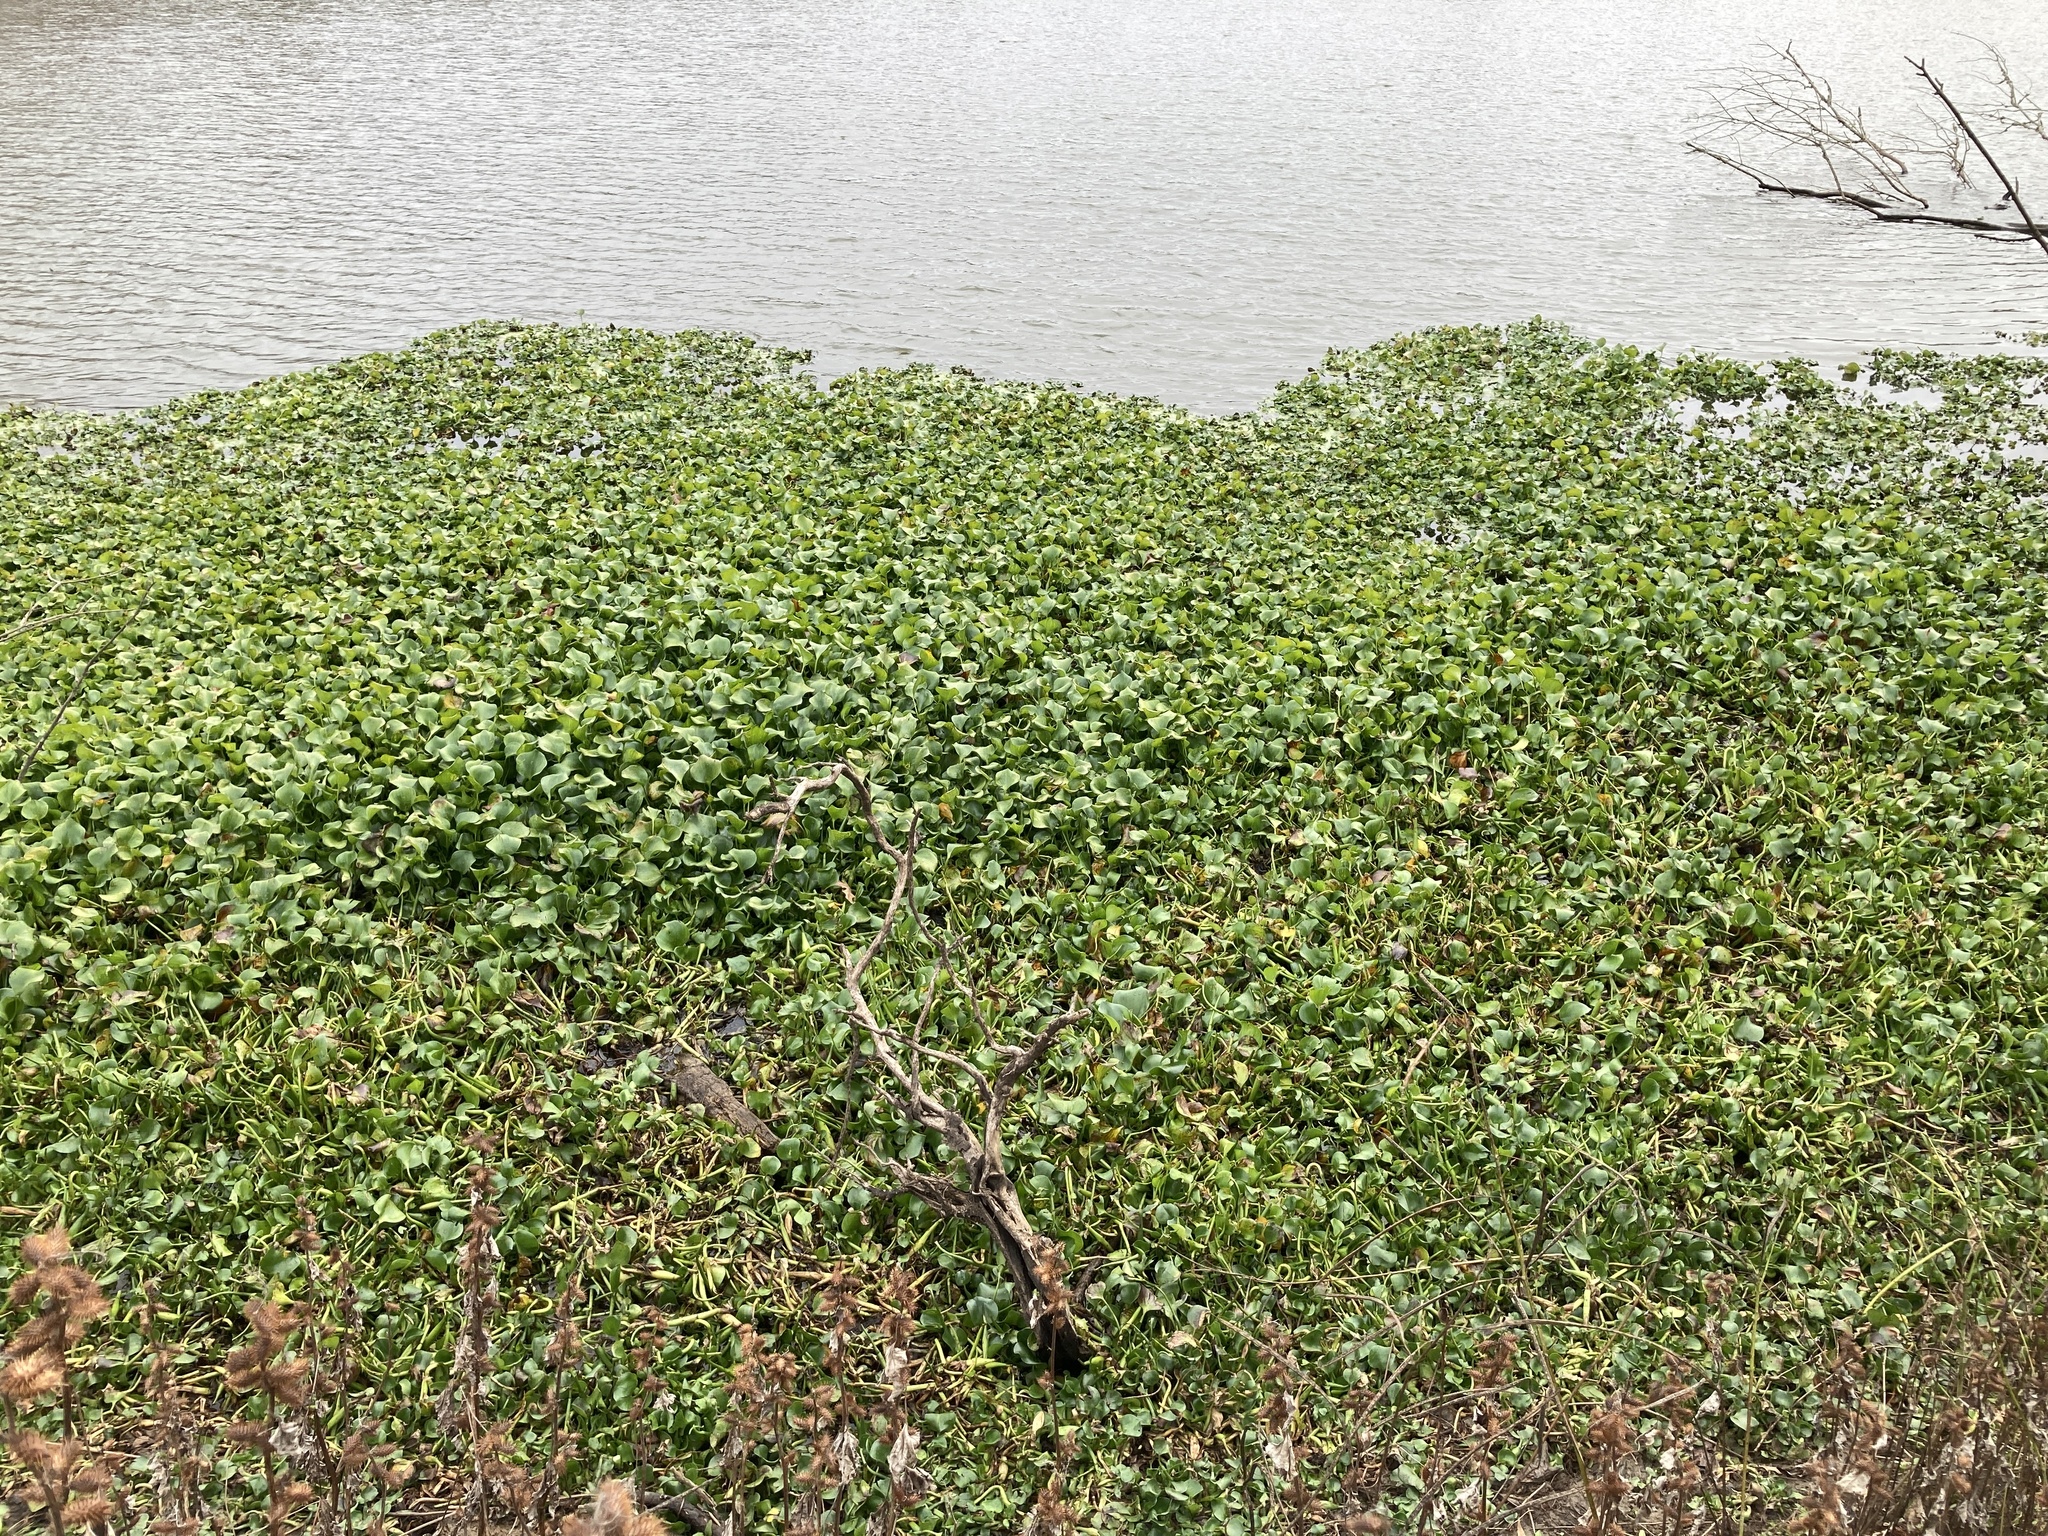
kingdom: Plantae
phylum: Tracheophyta
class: Liliopsida
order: Commelinales
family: Pontederiaceae
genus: Pontederia
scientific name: Pontederia crassipes
